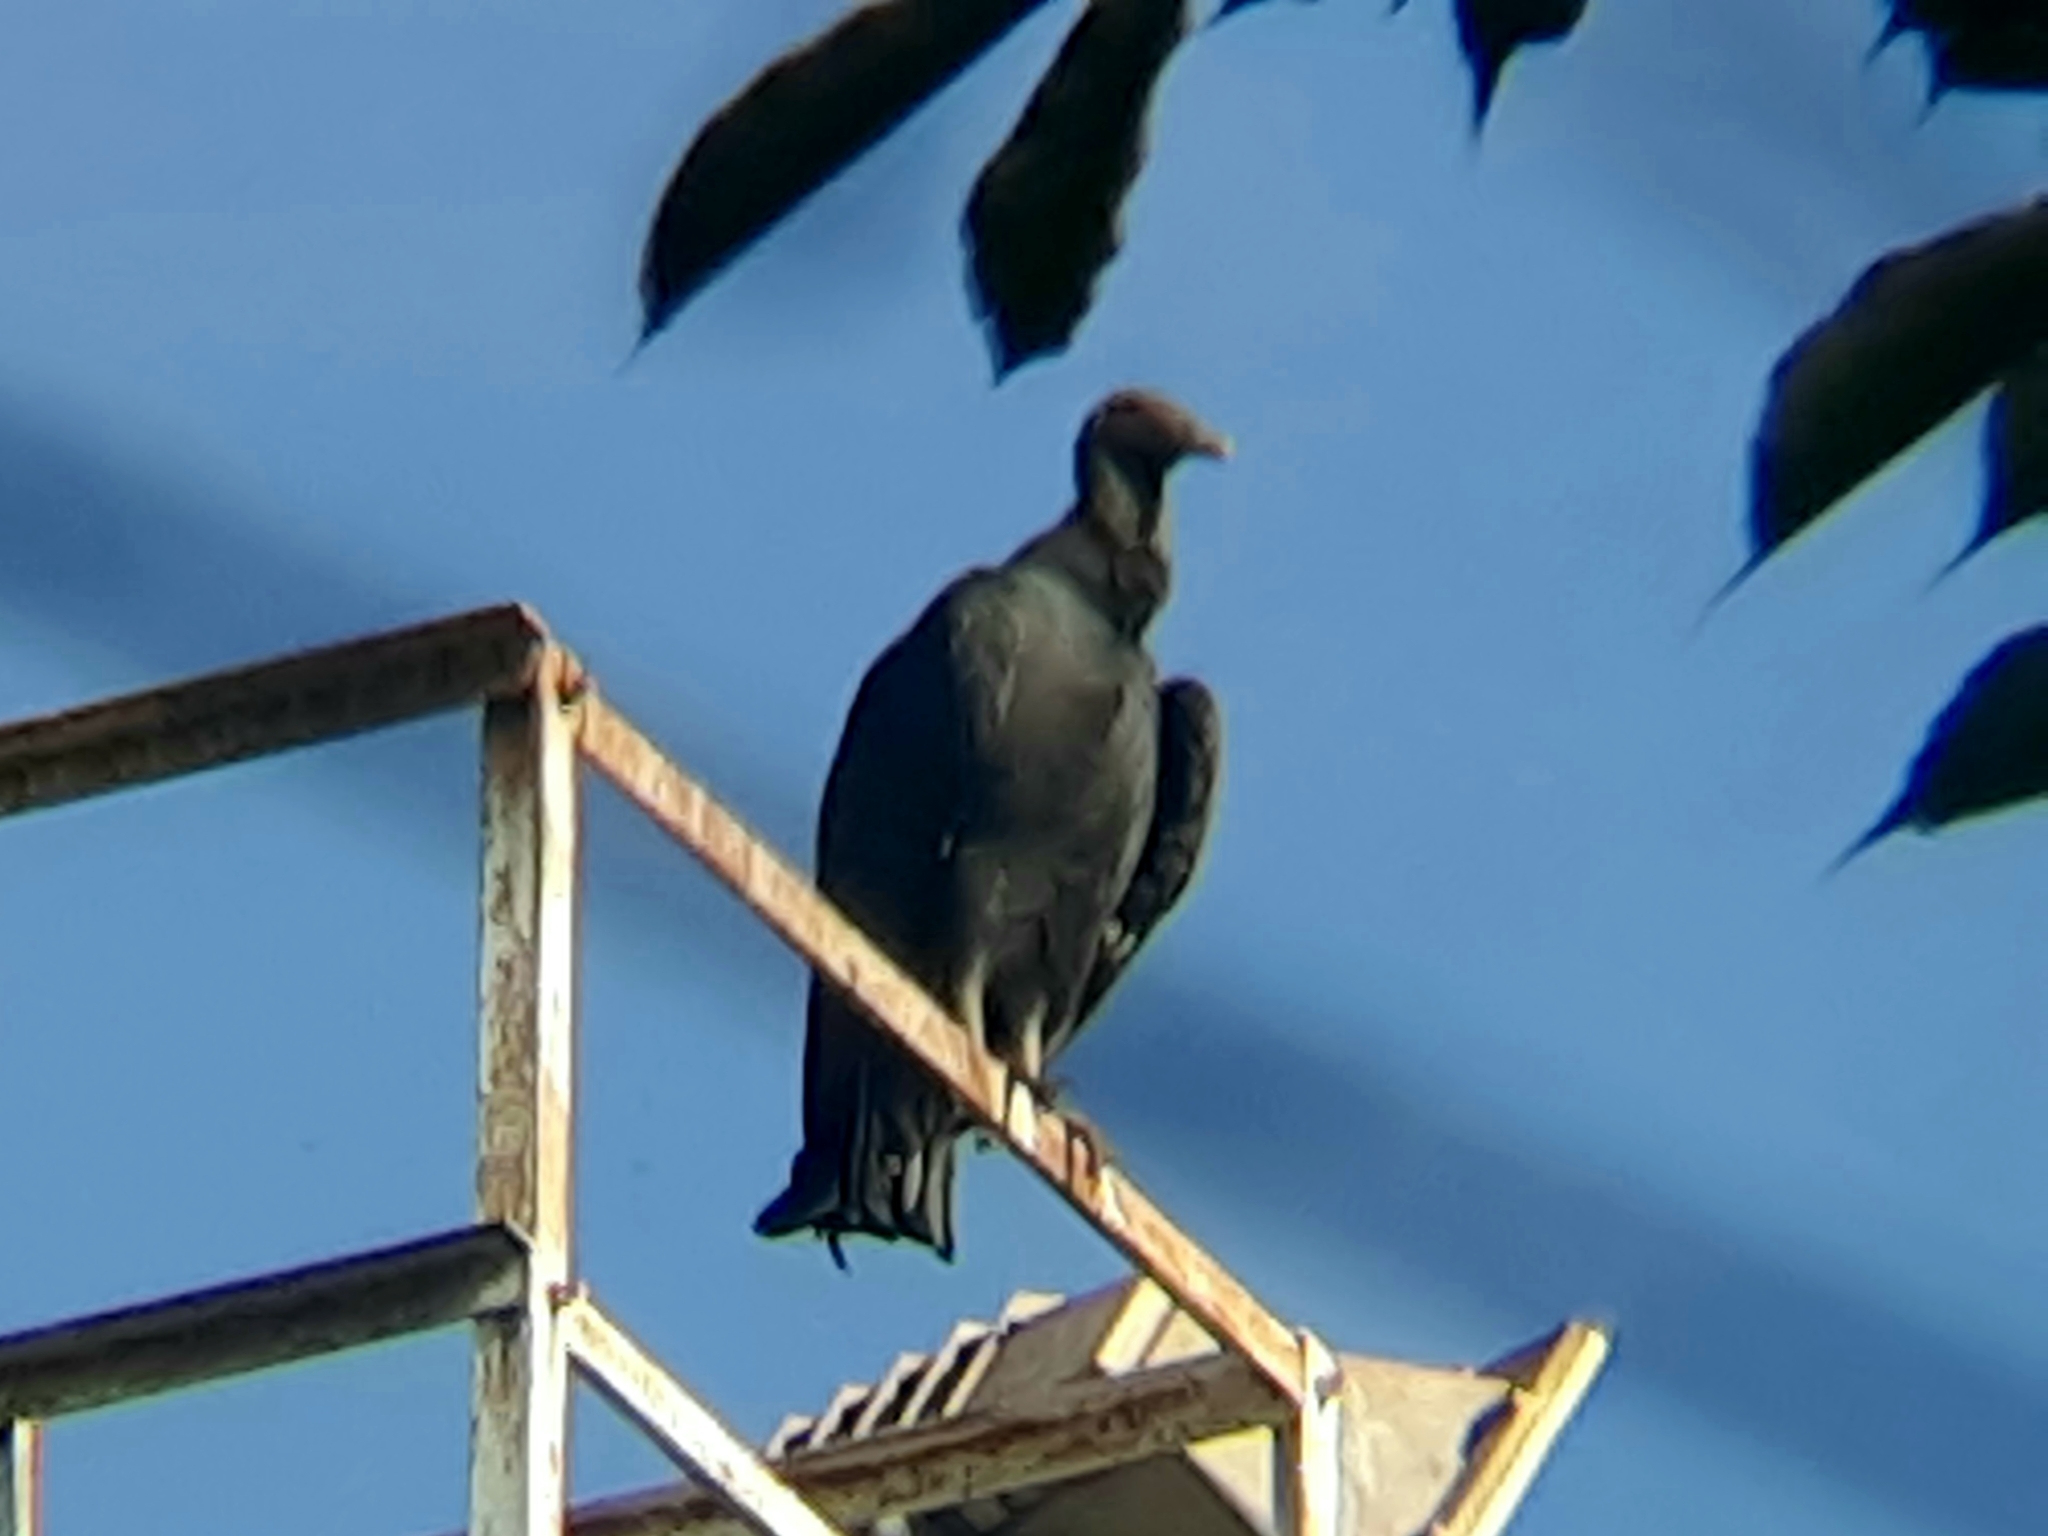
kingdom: Animalia
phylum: Chordata
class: Aves
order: Accipitriformes
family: Cathartidae
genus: Coragyps
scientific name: Coragyps atratus
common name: Black vulture
